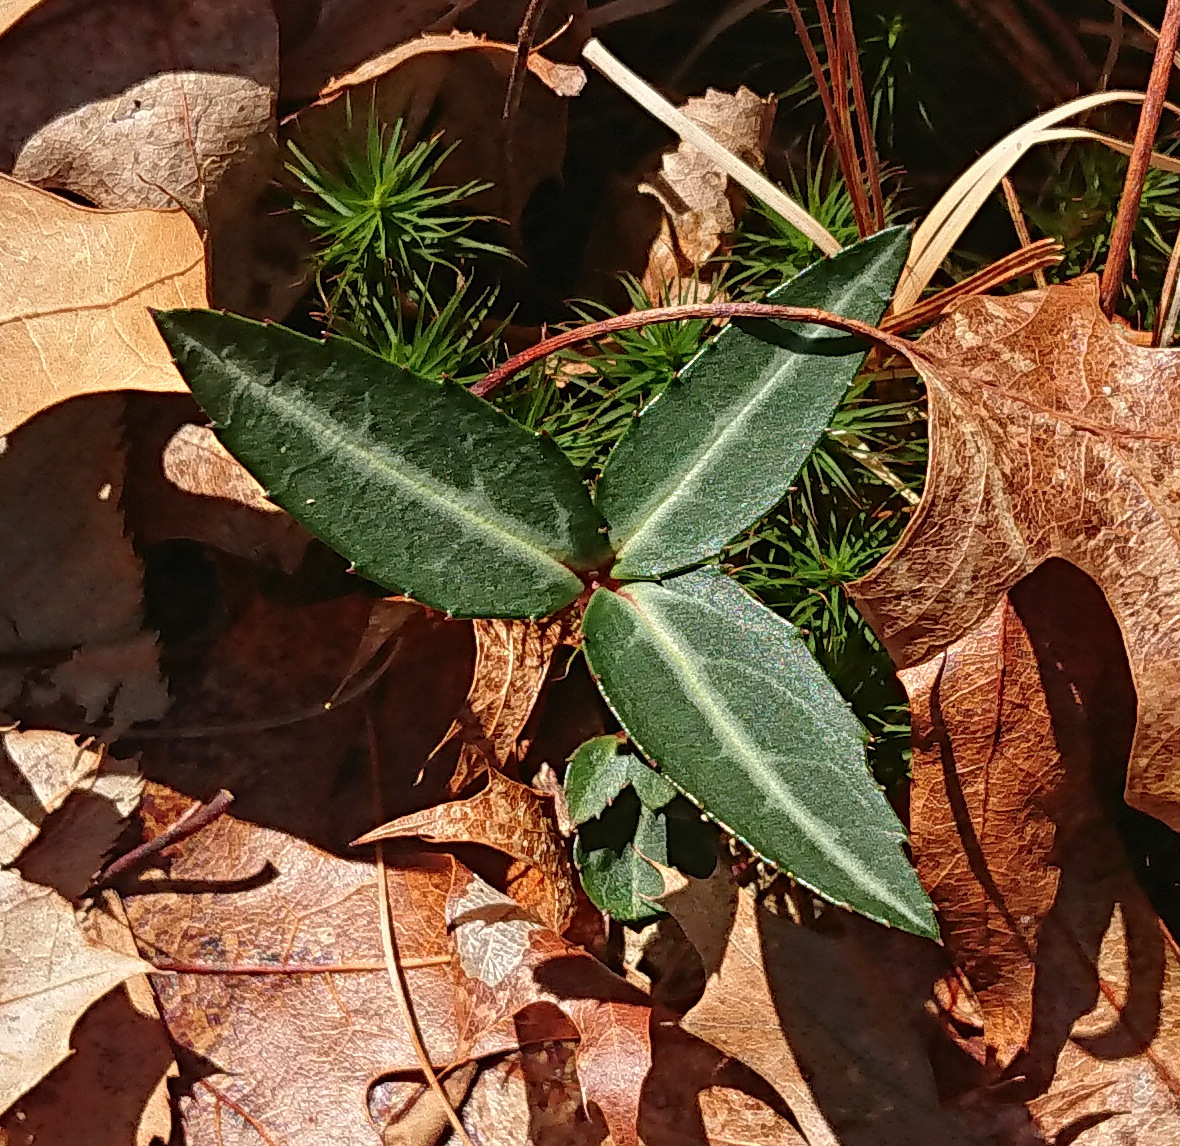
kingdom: Plantae
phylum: Tracheophyta
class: Magnoliopsida
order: Ericales
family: Ericaceae
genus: Chimaphila
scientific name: Chimaphila maculata
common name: Spotted pipsissewa
